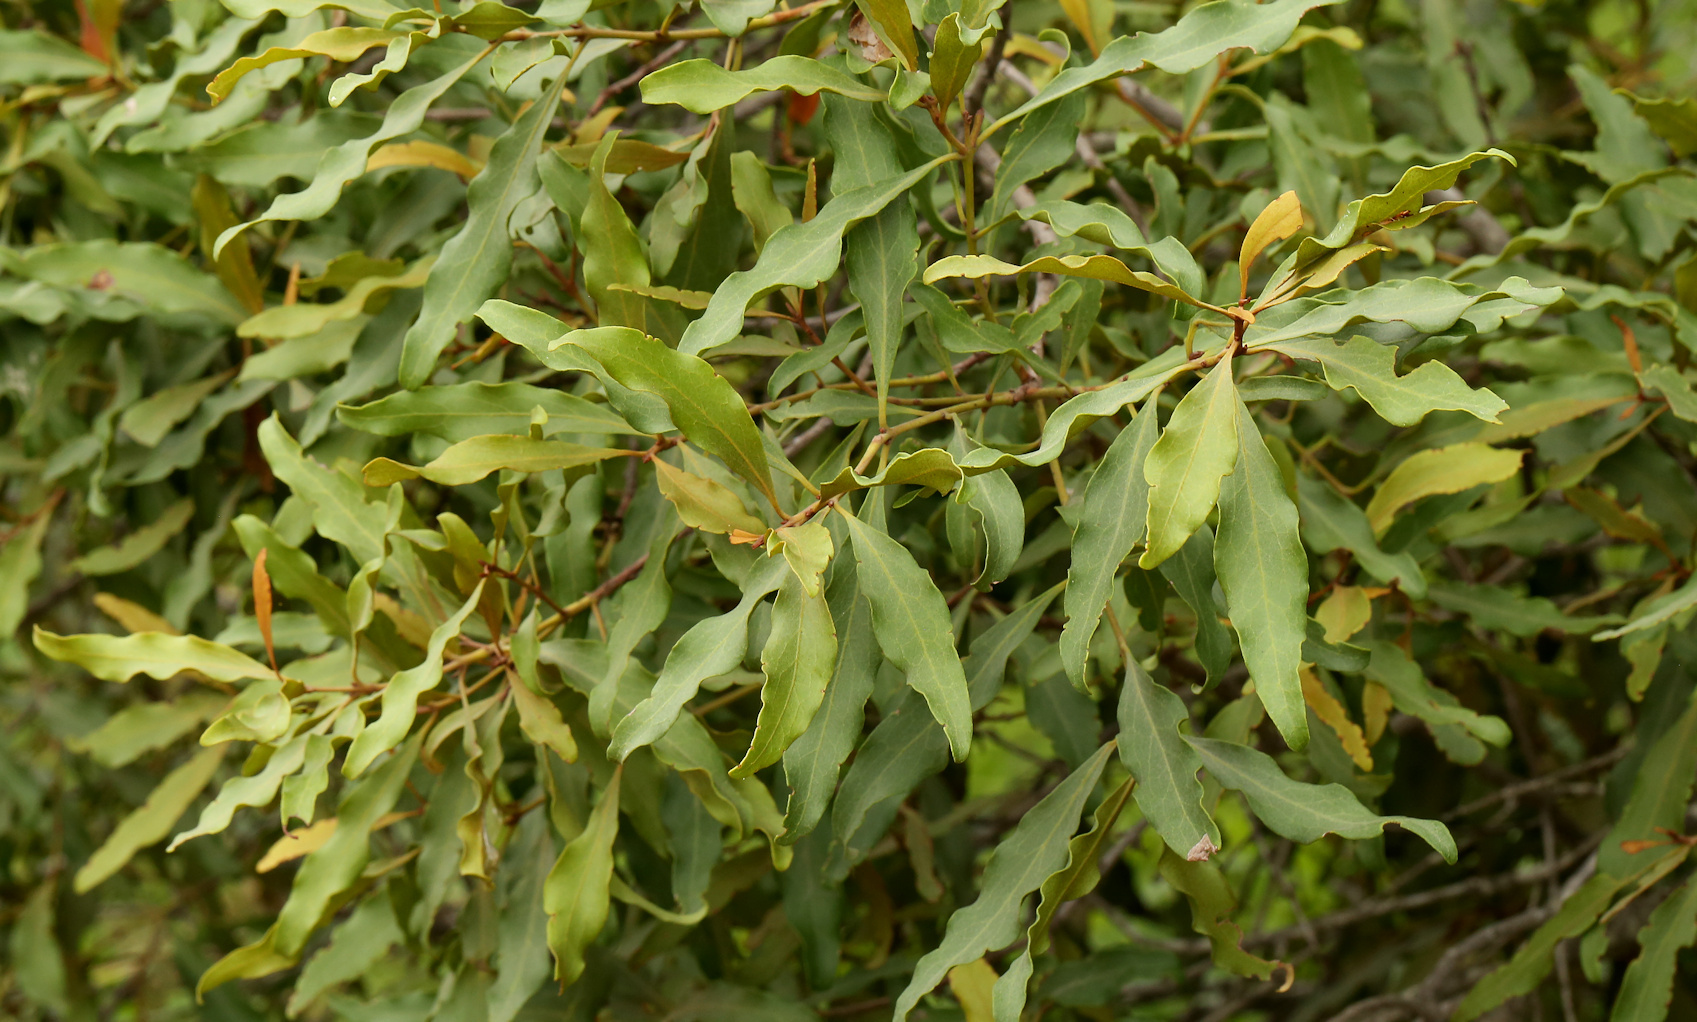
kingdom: Plantae
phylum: Tracheophyta
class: Magnoliopsida
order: Ericales
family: Ebenaceae
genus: Euclea
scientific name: Euclea divinorum
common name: Diamond-leaved euclea
